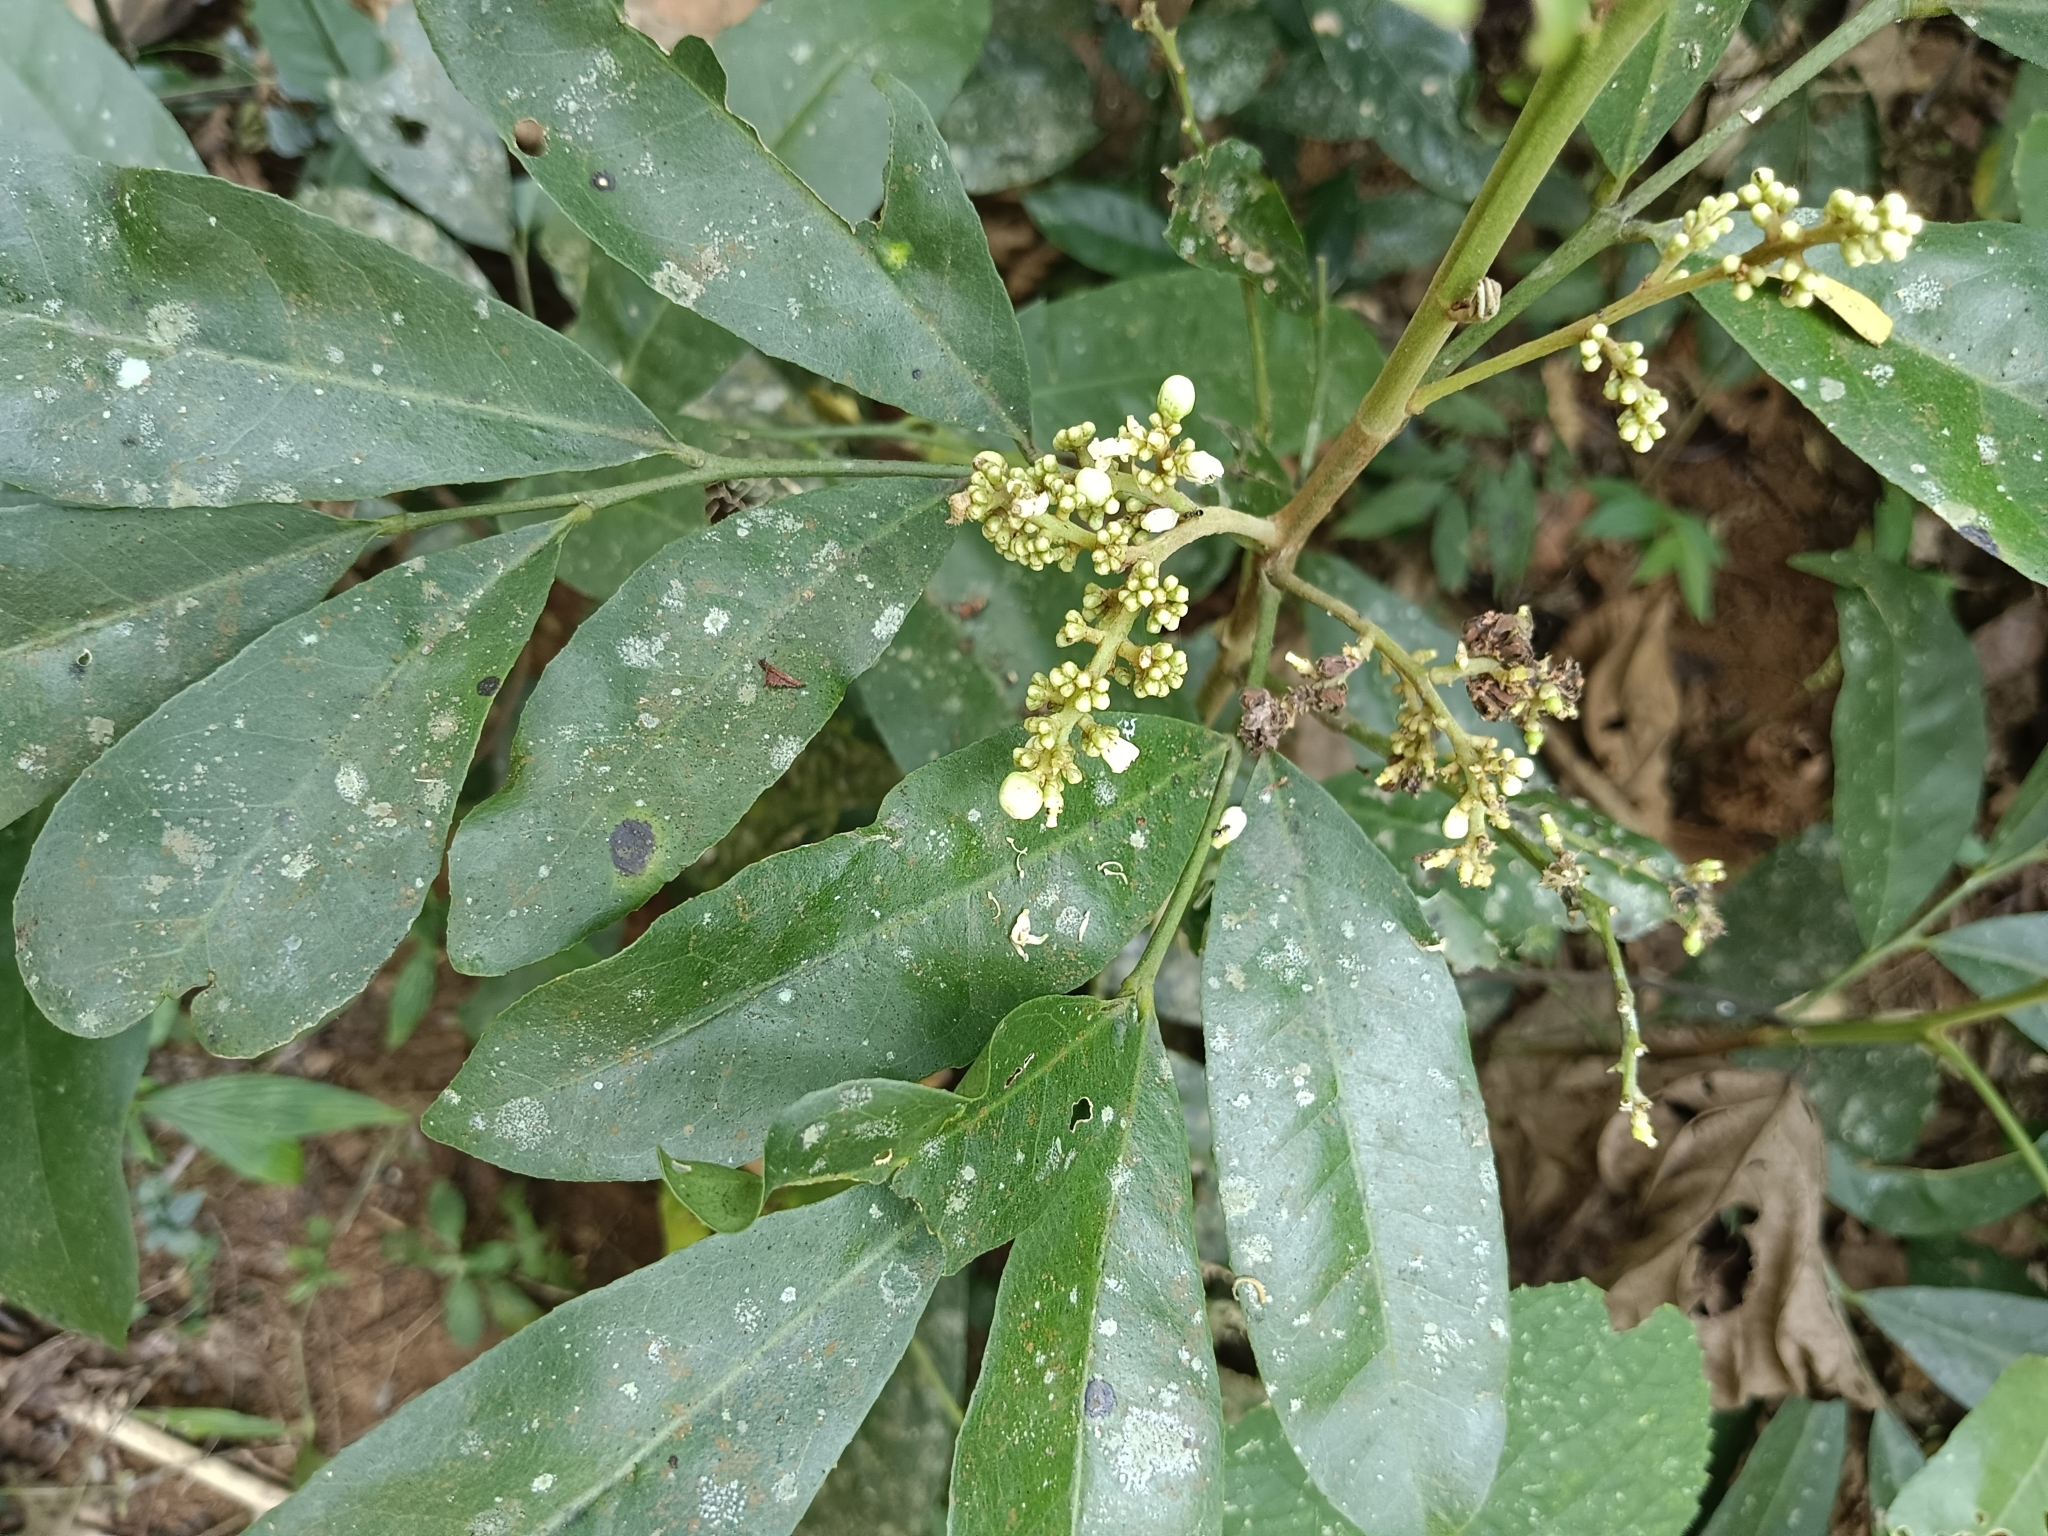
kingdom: Plantae
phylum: Tracheophyta
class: Magnoliopsida
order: Sapindales
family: Rutaceae
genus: Glycosmis
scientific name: Glycosmis pentaphylla
